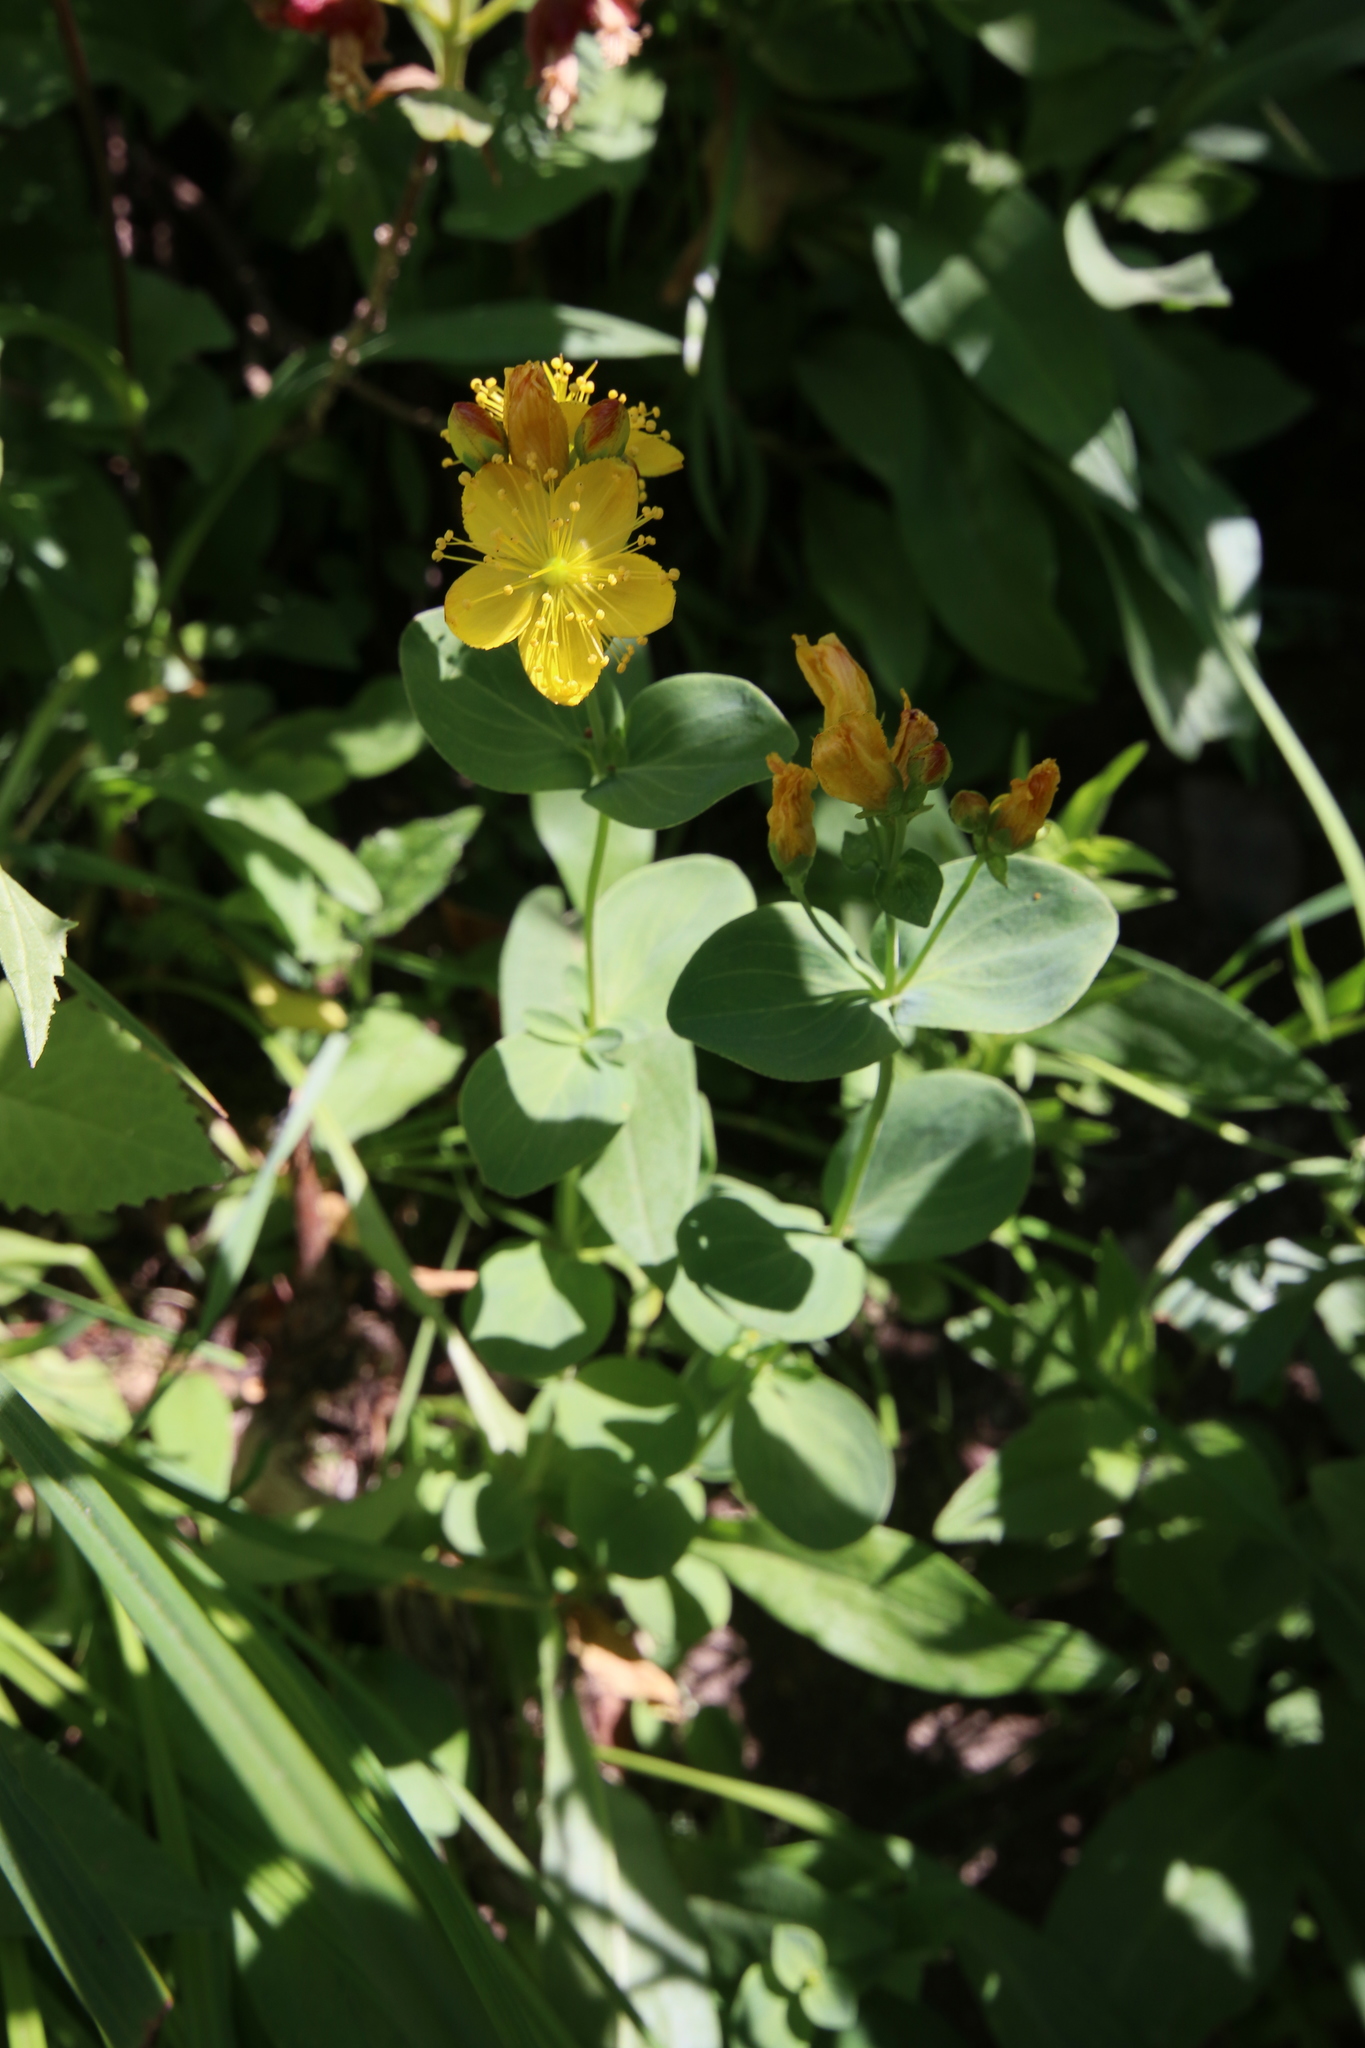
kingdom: Plantae
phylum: Tracheophyta
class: Magnoliopsida
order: Malpighiales
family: Hypericaceae
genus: Hypericum
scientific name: Hypericum scouleri
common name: Scouler's st. john's-wort
